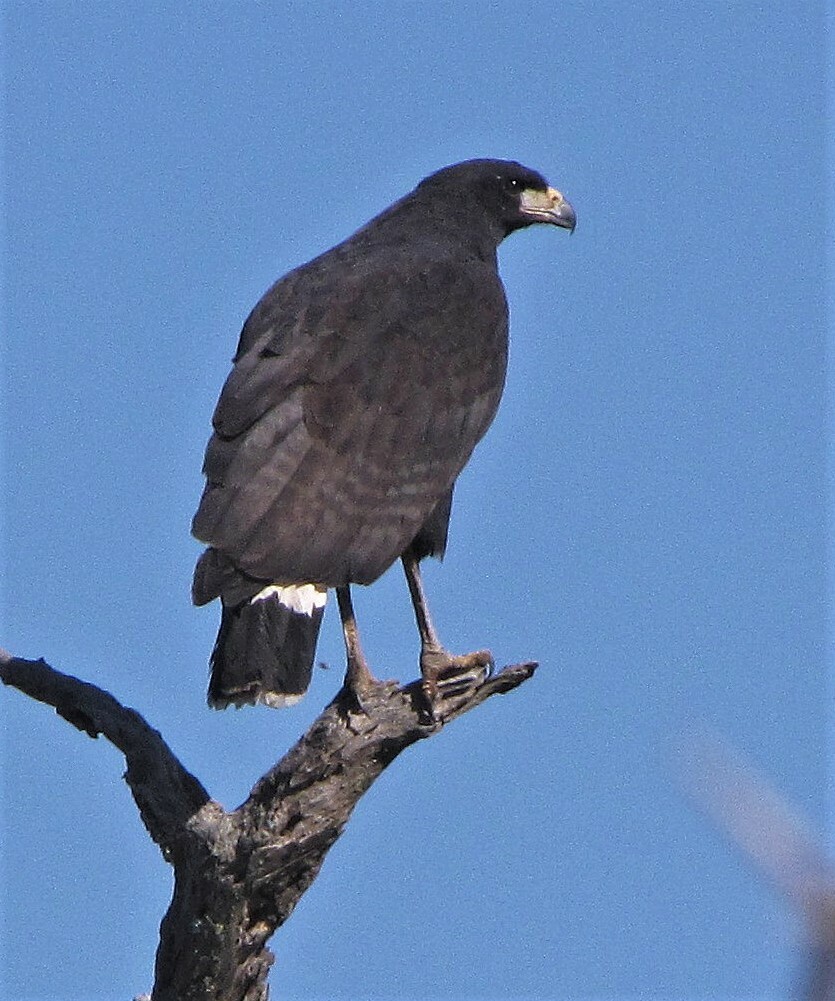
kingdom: Animalia
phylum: Chordata
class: Aves
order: Accipitriformes
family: Accipitridae
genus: Buteogallus
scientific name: Buteogallus urubitinga
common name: Great black hawk
